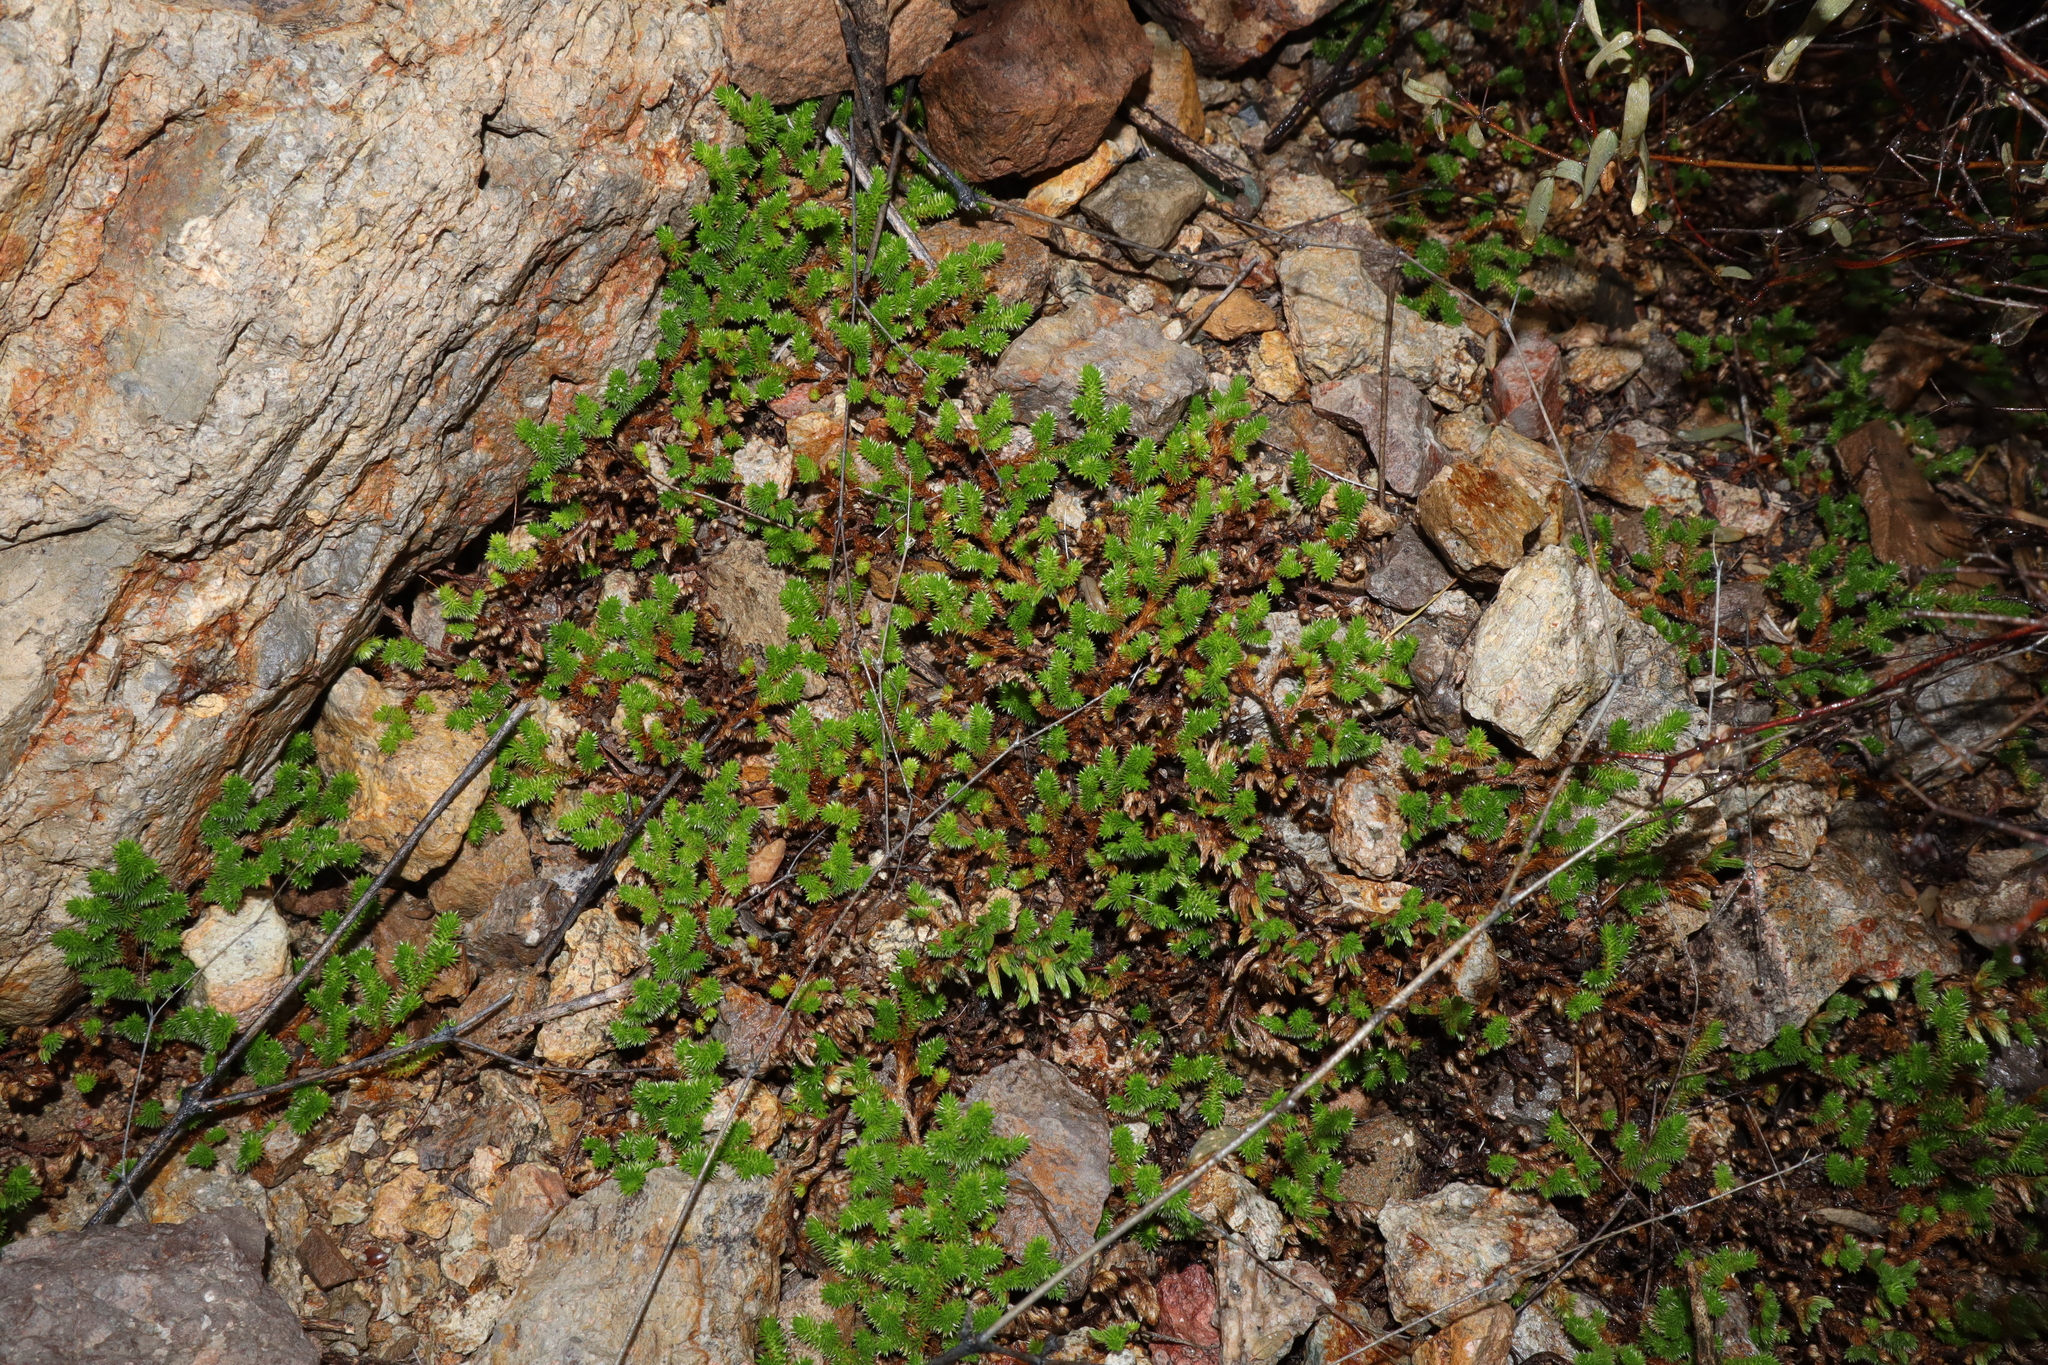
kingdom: Plantae
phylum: Tracheophyta
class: Lycopodiopsida
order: Selaginellales
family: Selaginellaceae
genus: Selaginella
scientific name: Selaginella arizonica
